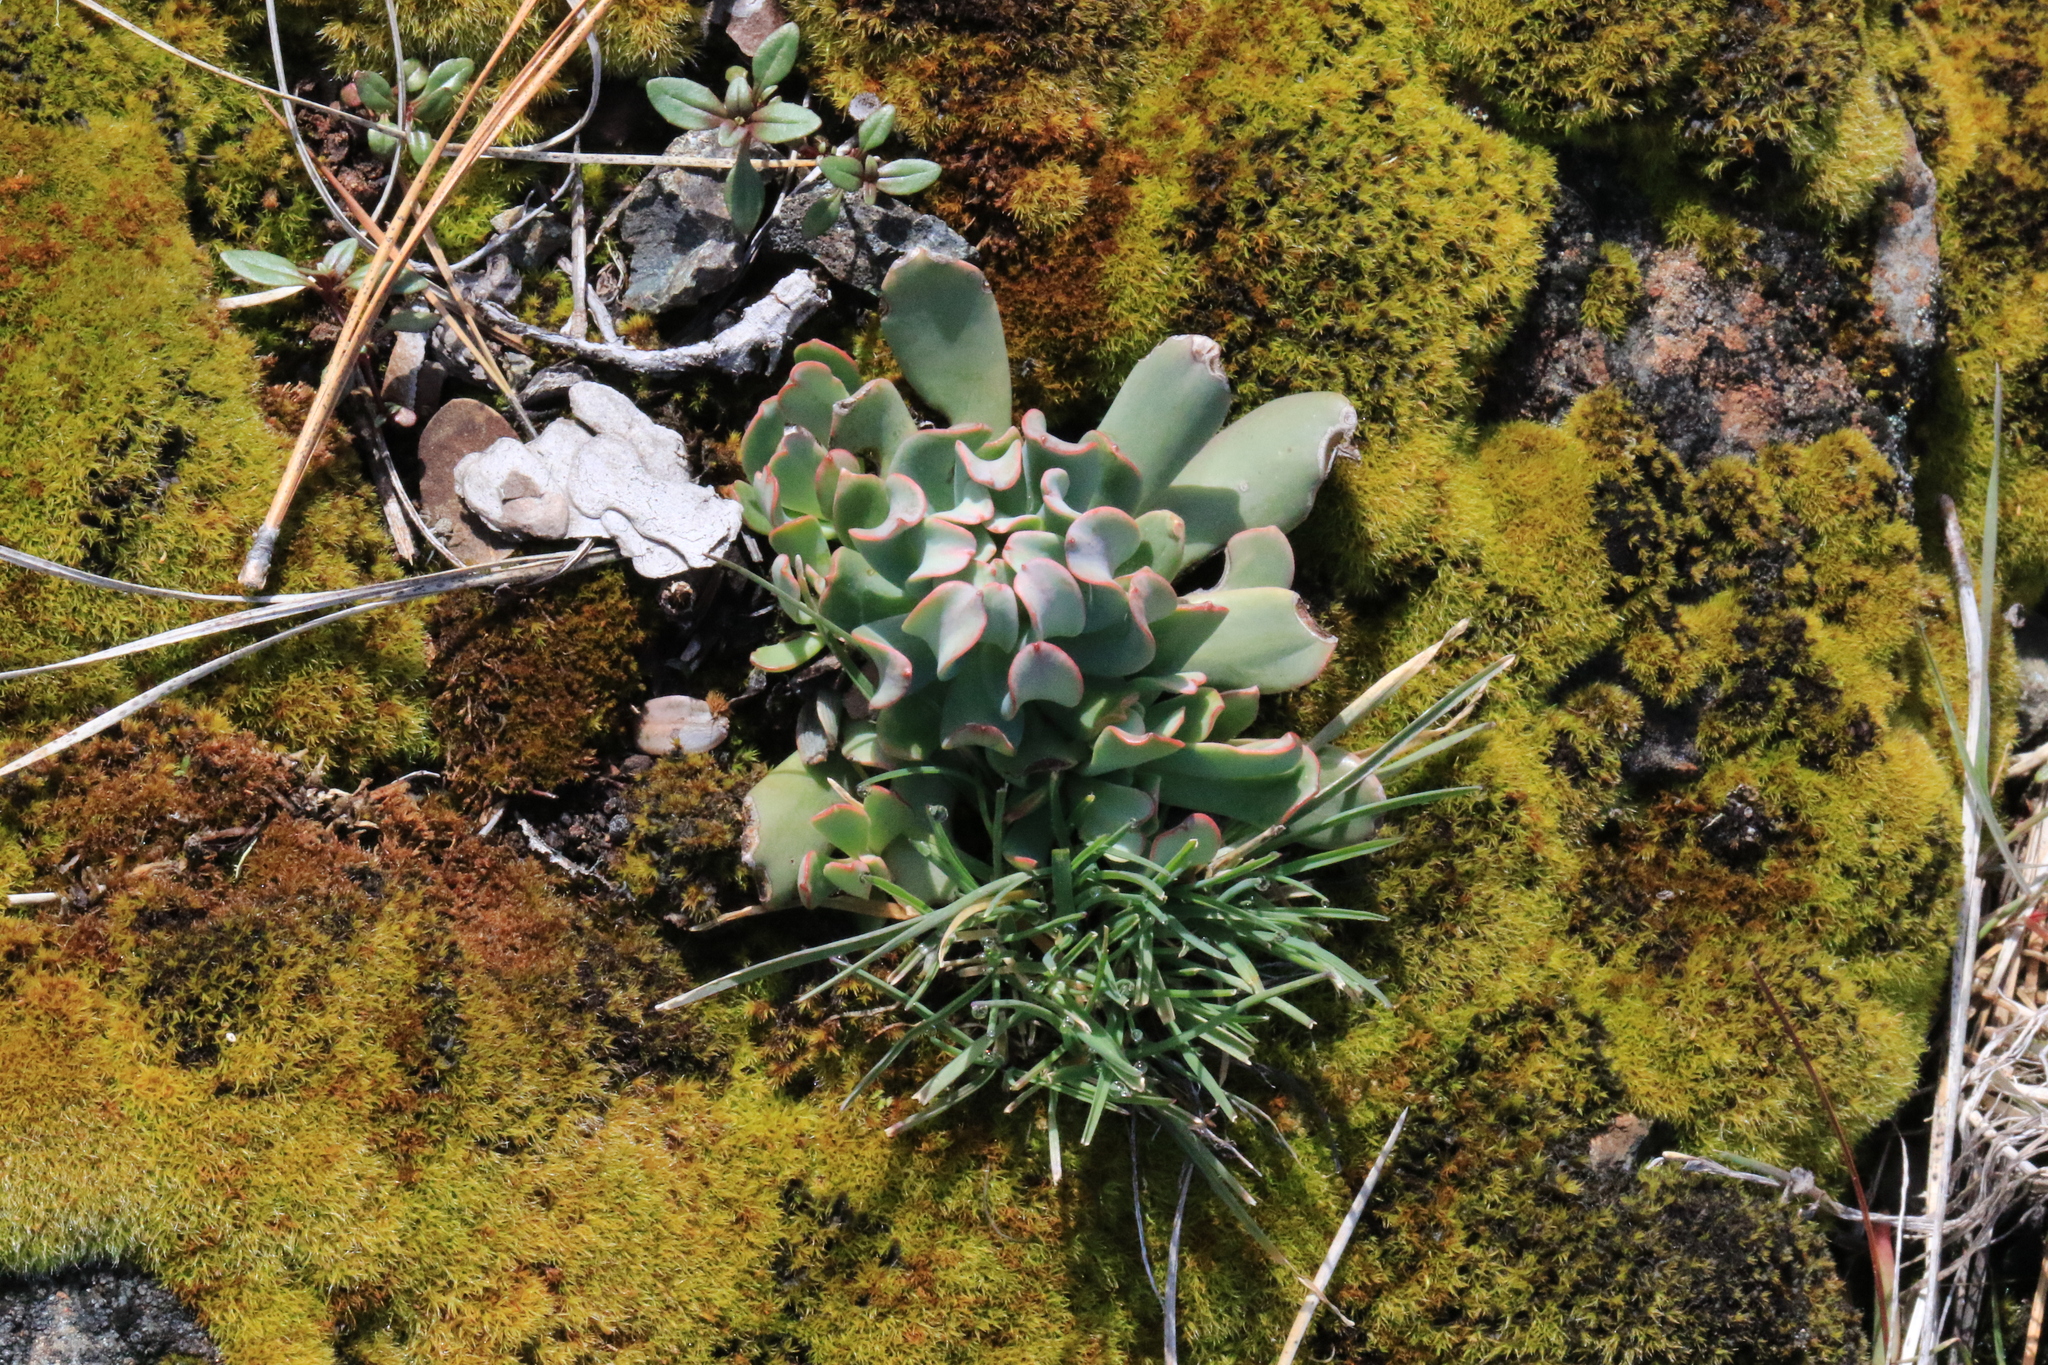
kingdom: Plantae
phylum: Tracheophyta
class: Magnoliopsida
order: Saxifragales
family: Crassulaceae
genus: Sedum
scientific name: Sedum laxum
